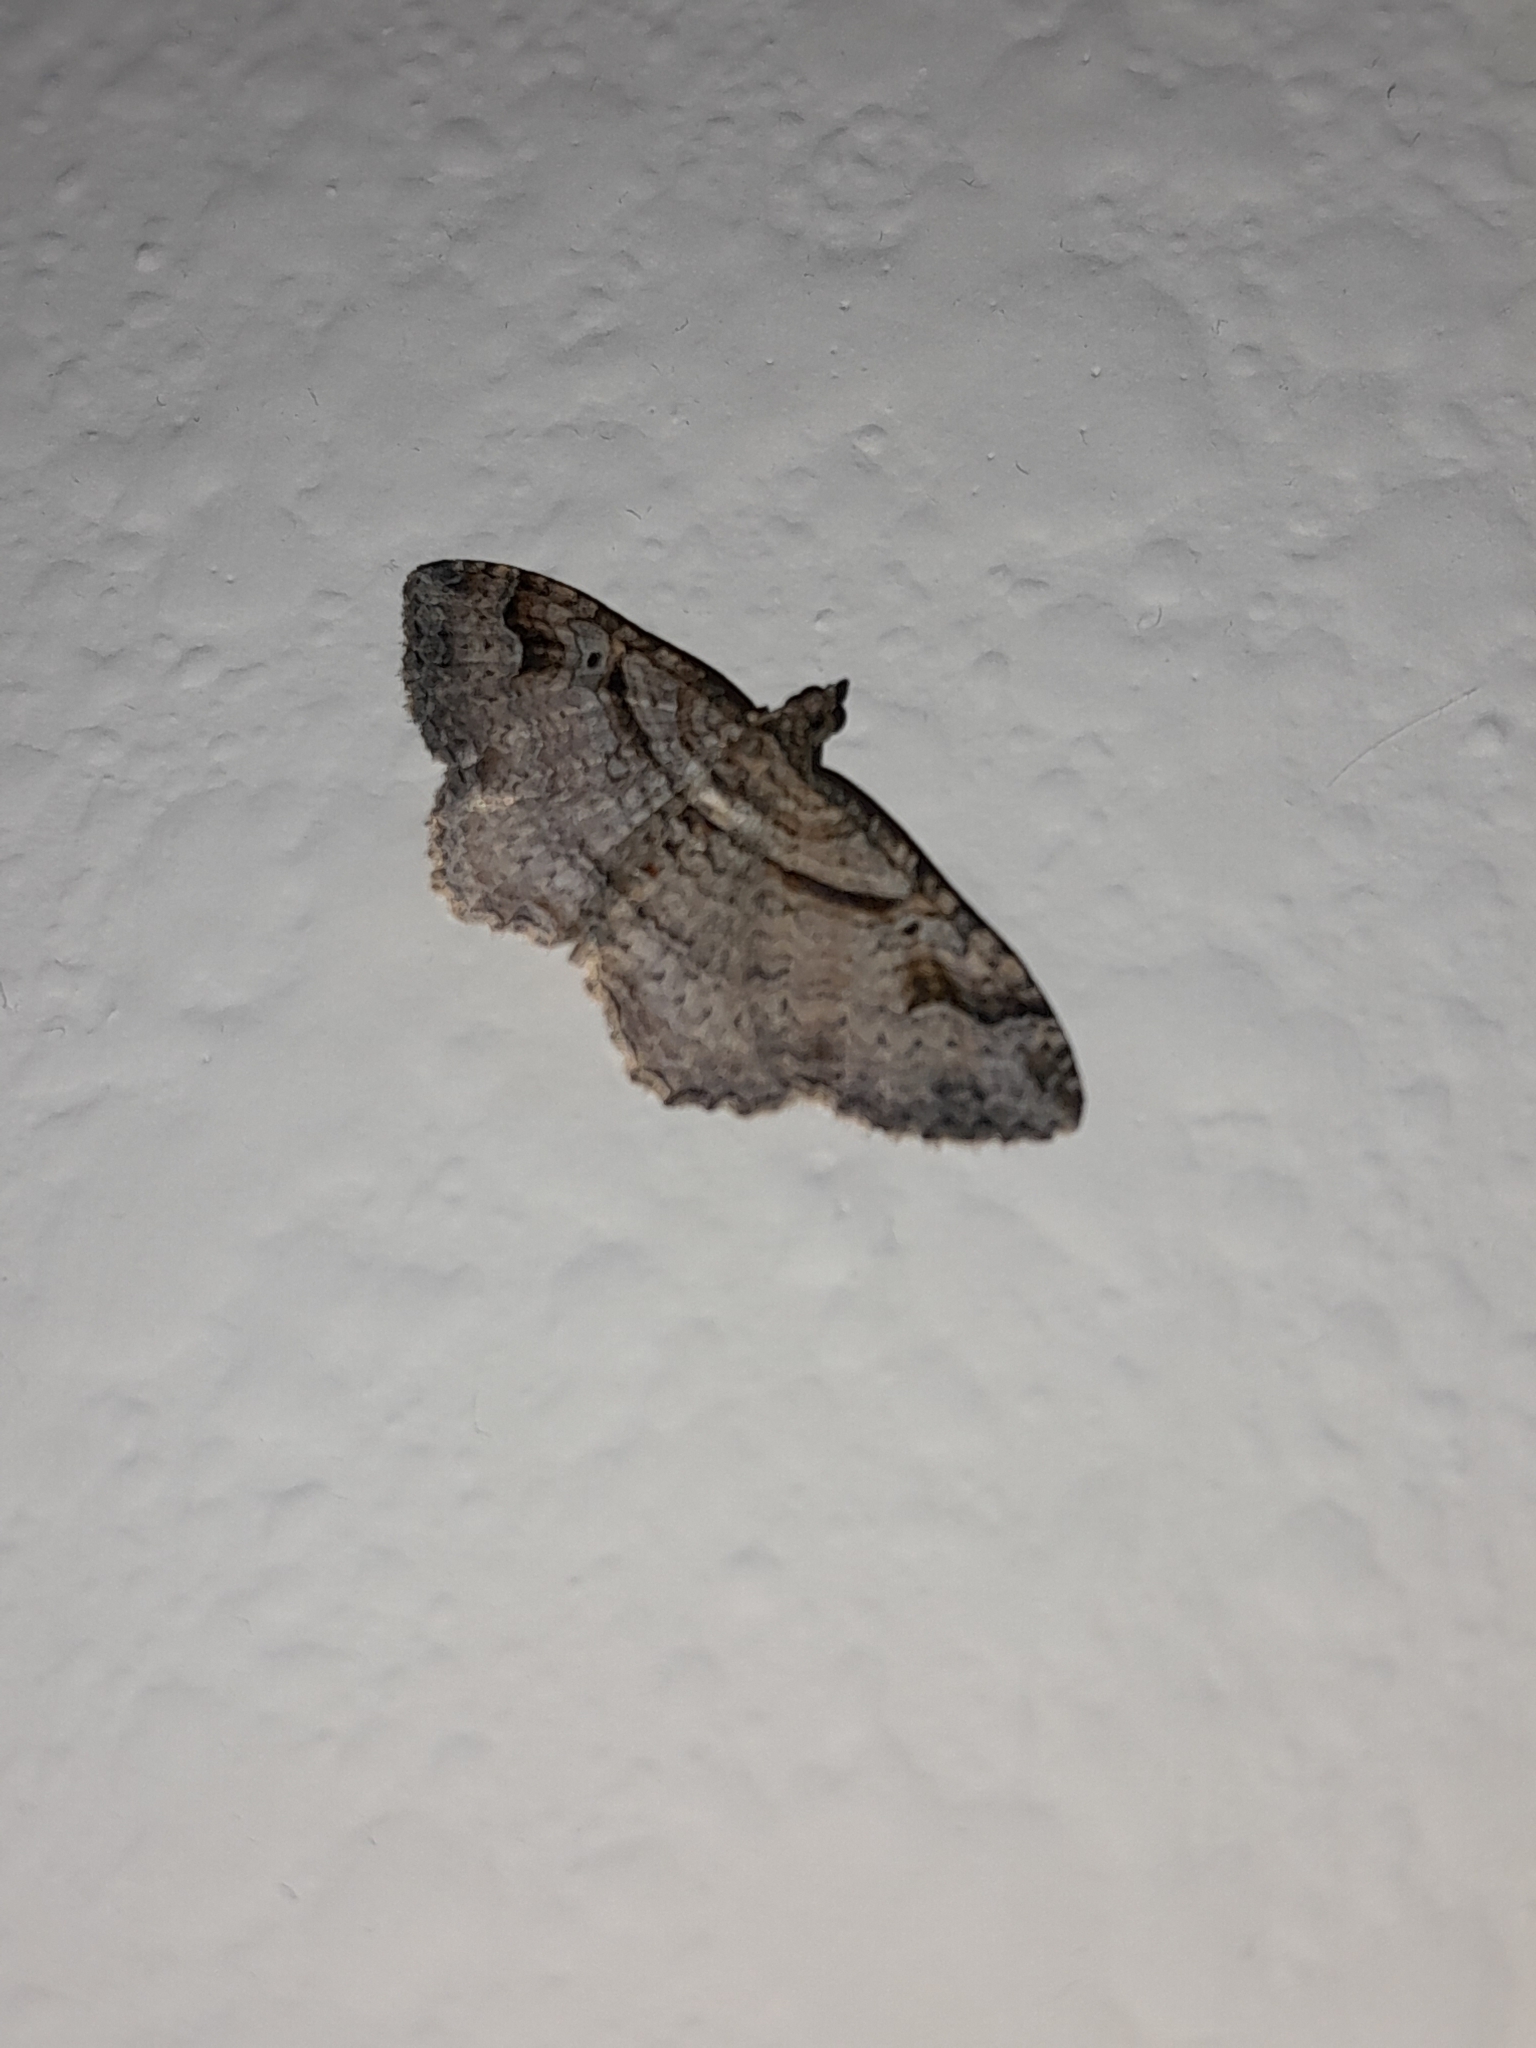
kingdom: Animalia
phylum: Arthropoda
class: Insecta
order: Lepidoptera
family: Geometridae
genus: Costaconvexa
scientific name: Costaconvexa centrostrigaria
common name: Bent-line carpet
